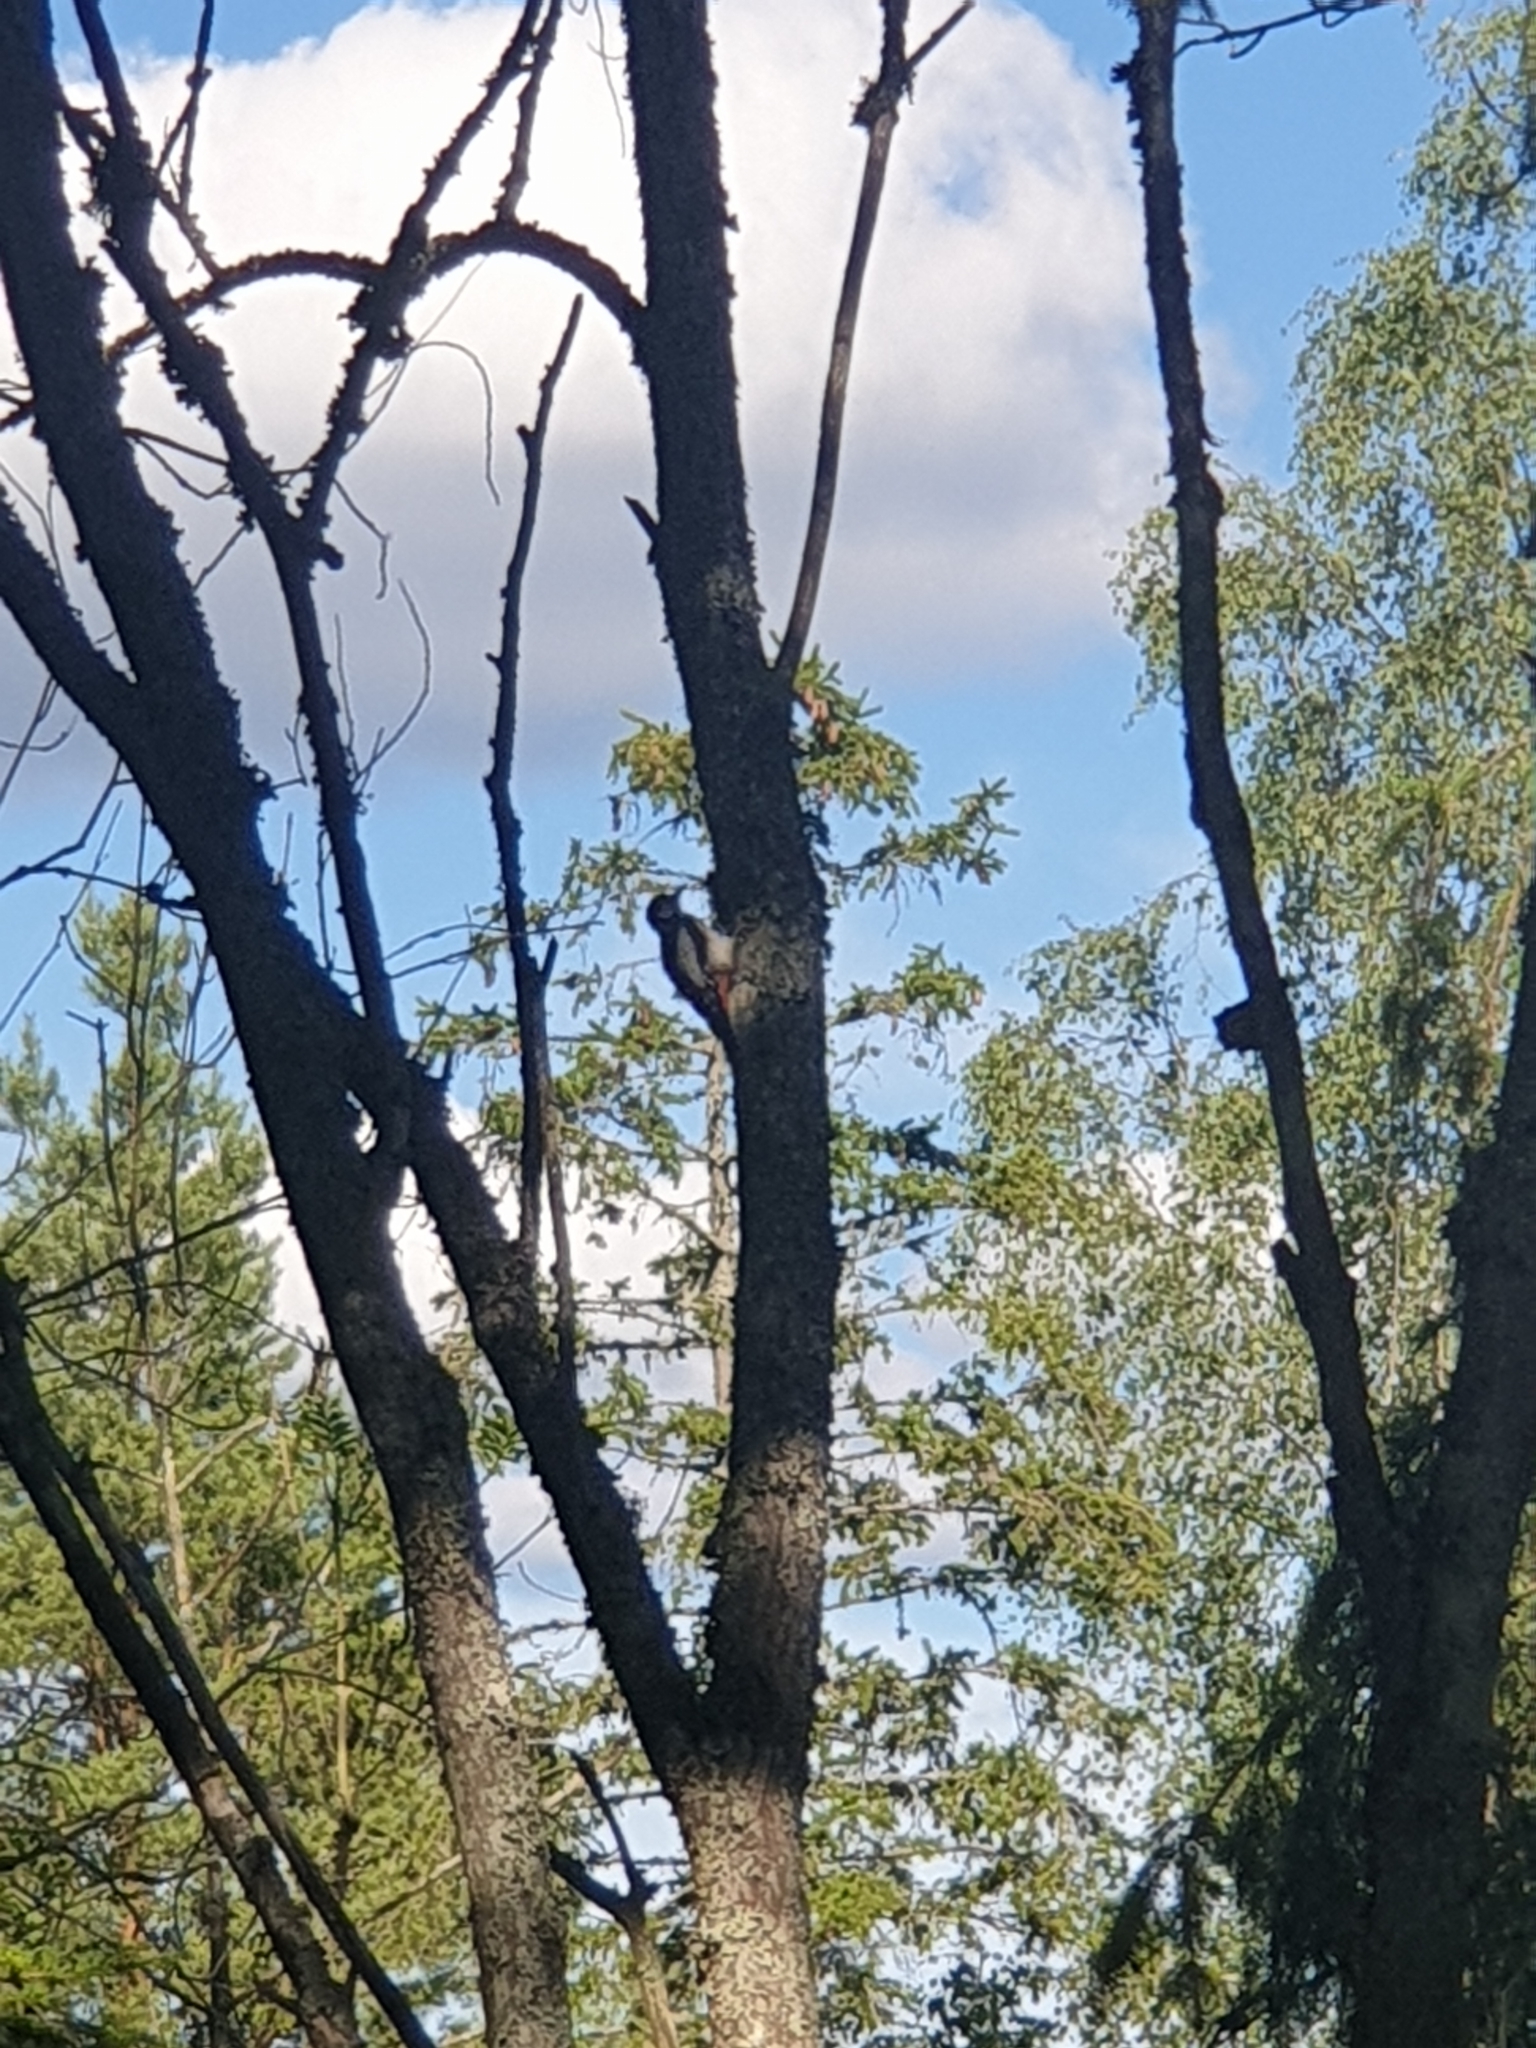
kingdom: Animalia
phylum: Chordata
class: Aves
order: Piciformes
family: Picidae
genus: Dendrocopos
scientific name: Dendrocopos major
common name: Great spotted woodpecker
